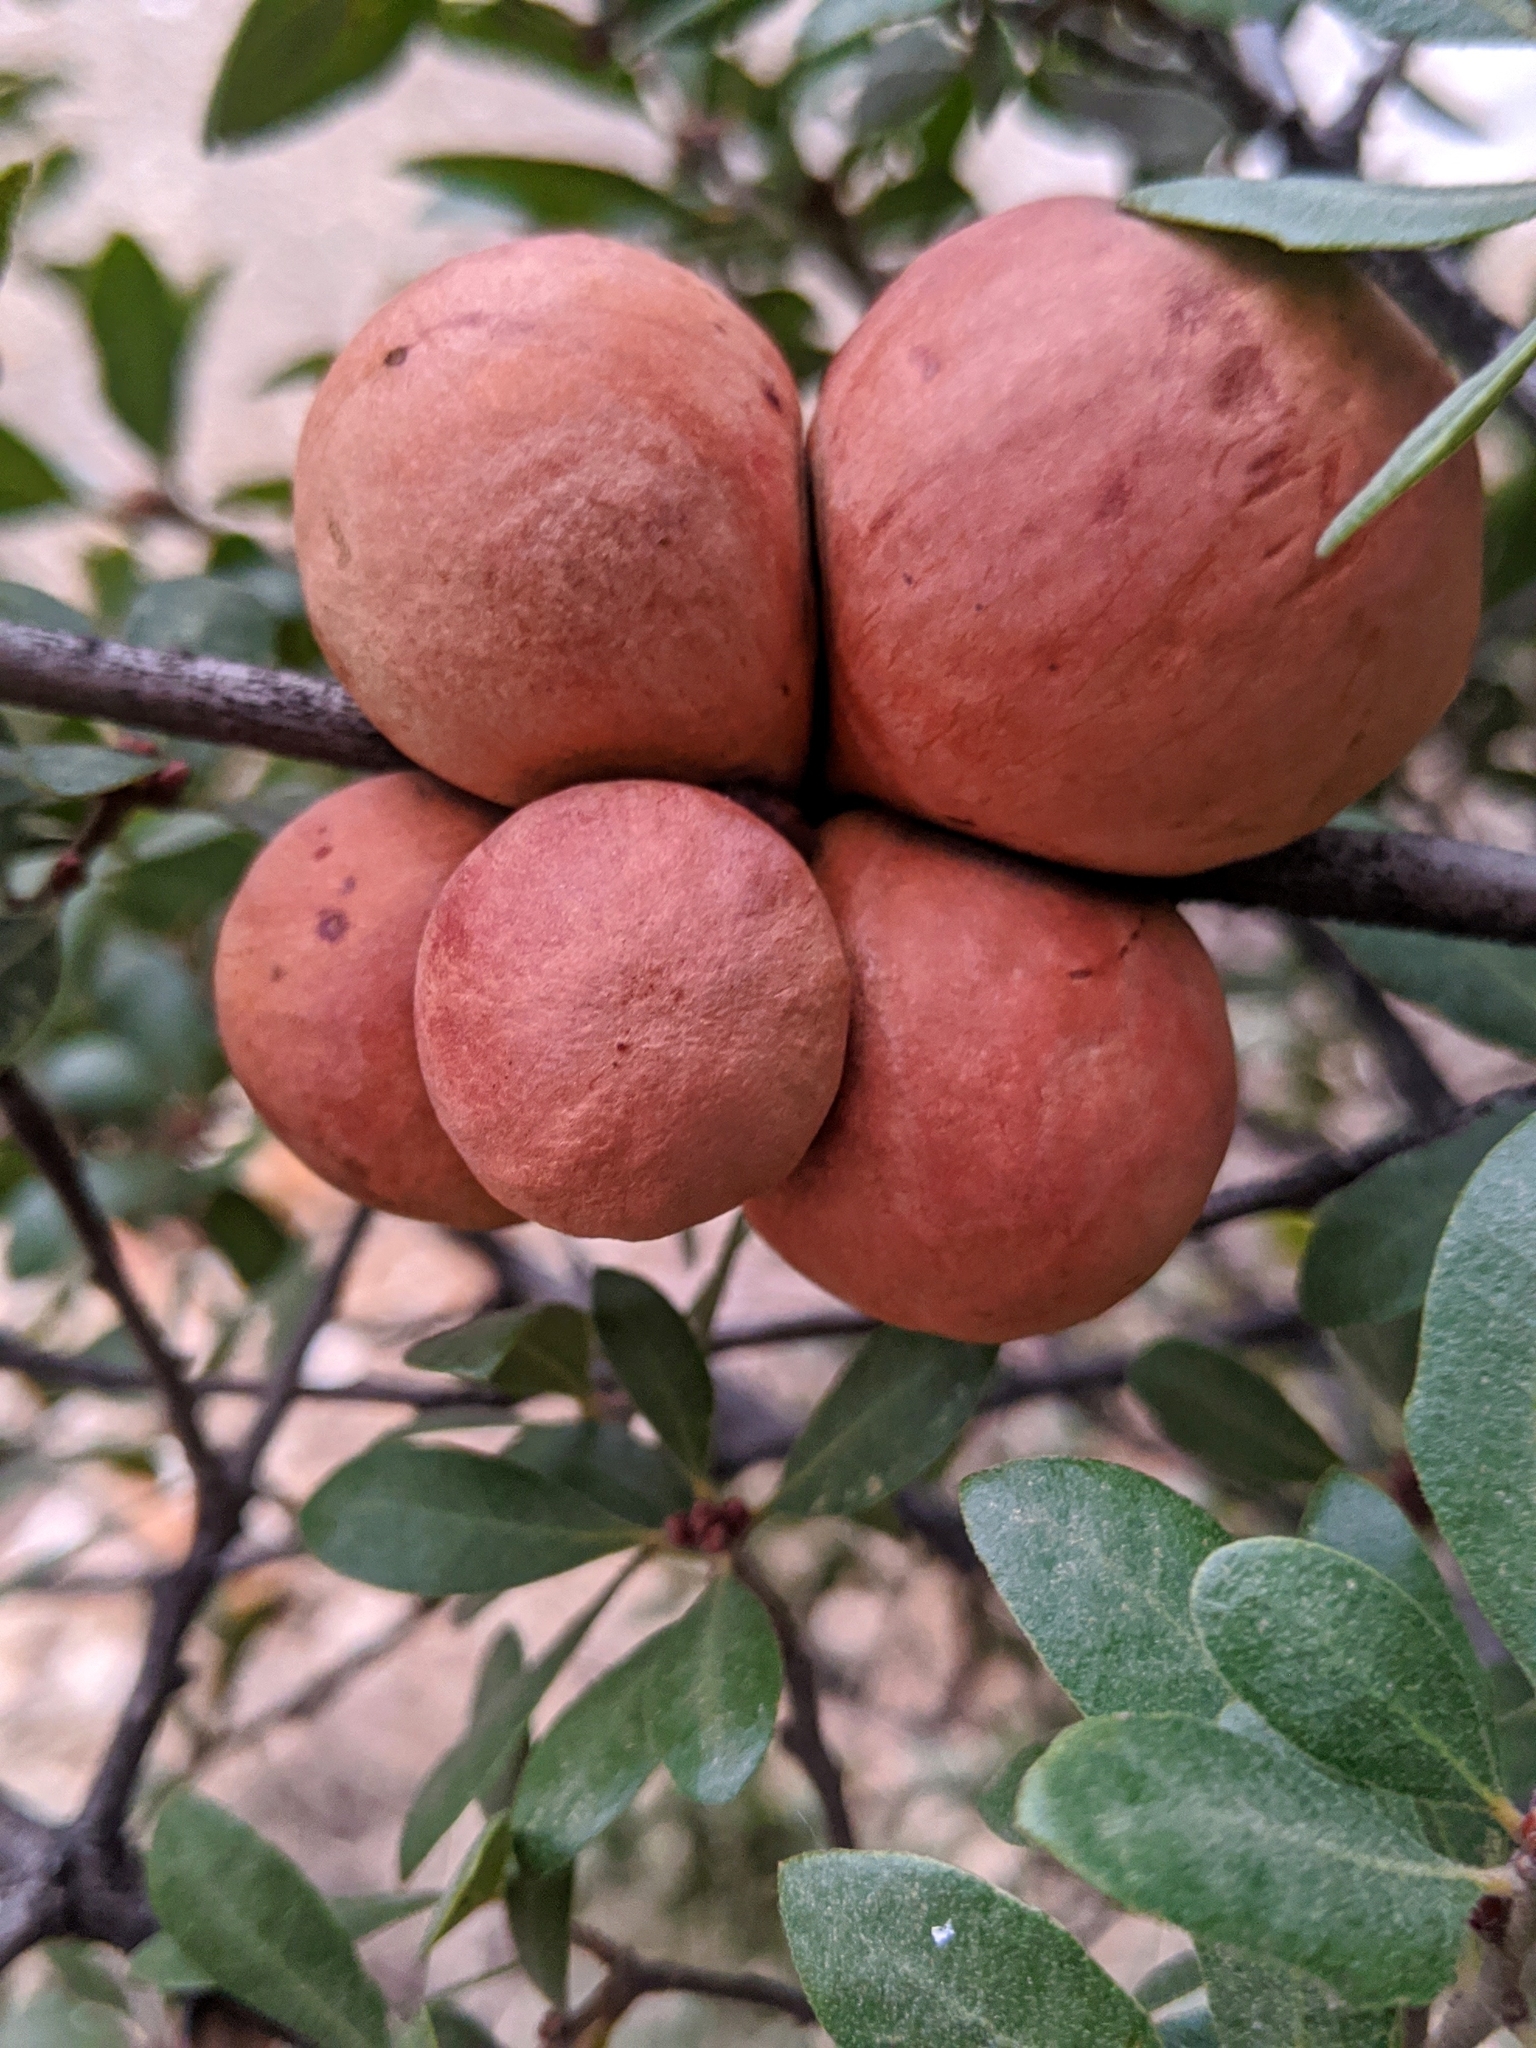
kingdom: Animalia
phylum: Arthropoda
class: Insecta
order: Hymenoptera
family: Cynipidae
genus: Andricus
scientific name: Andricus quercuscalifornicus
